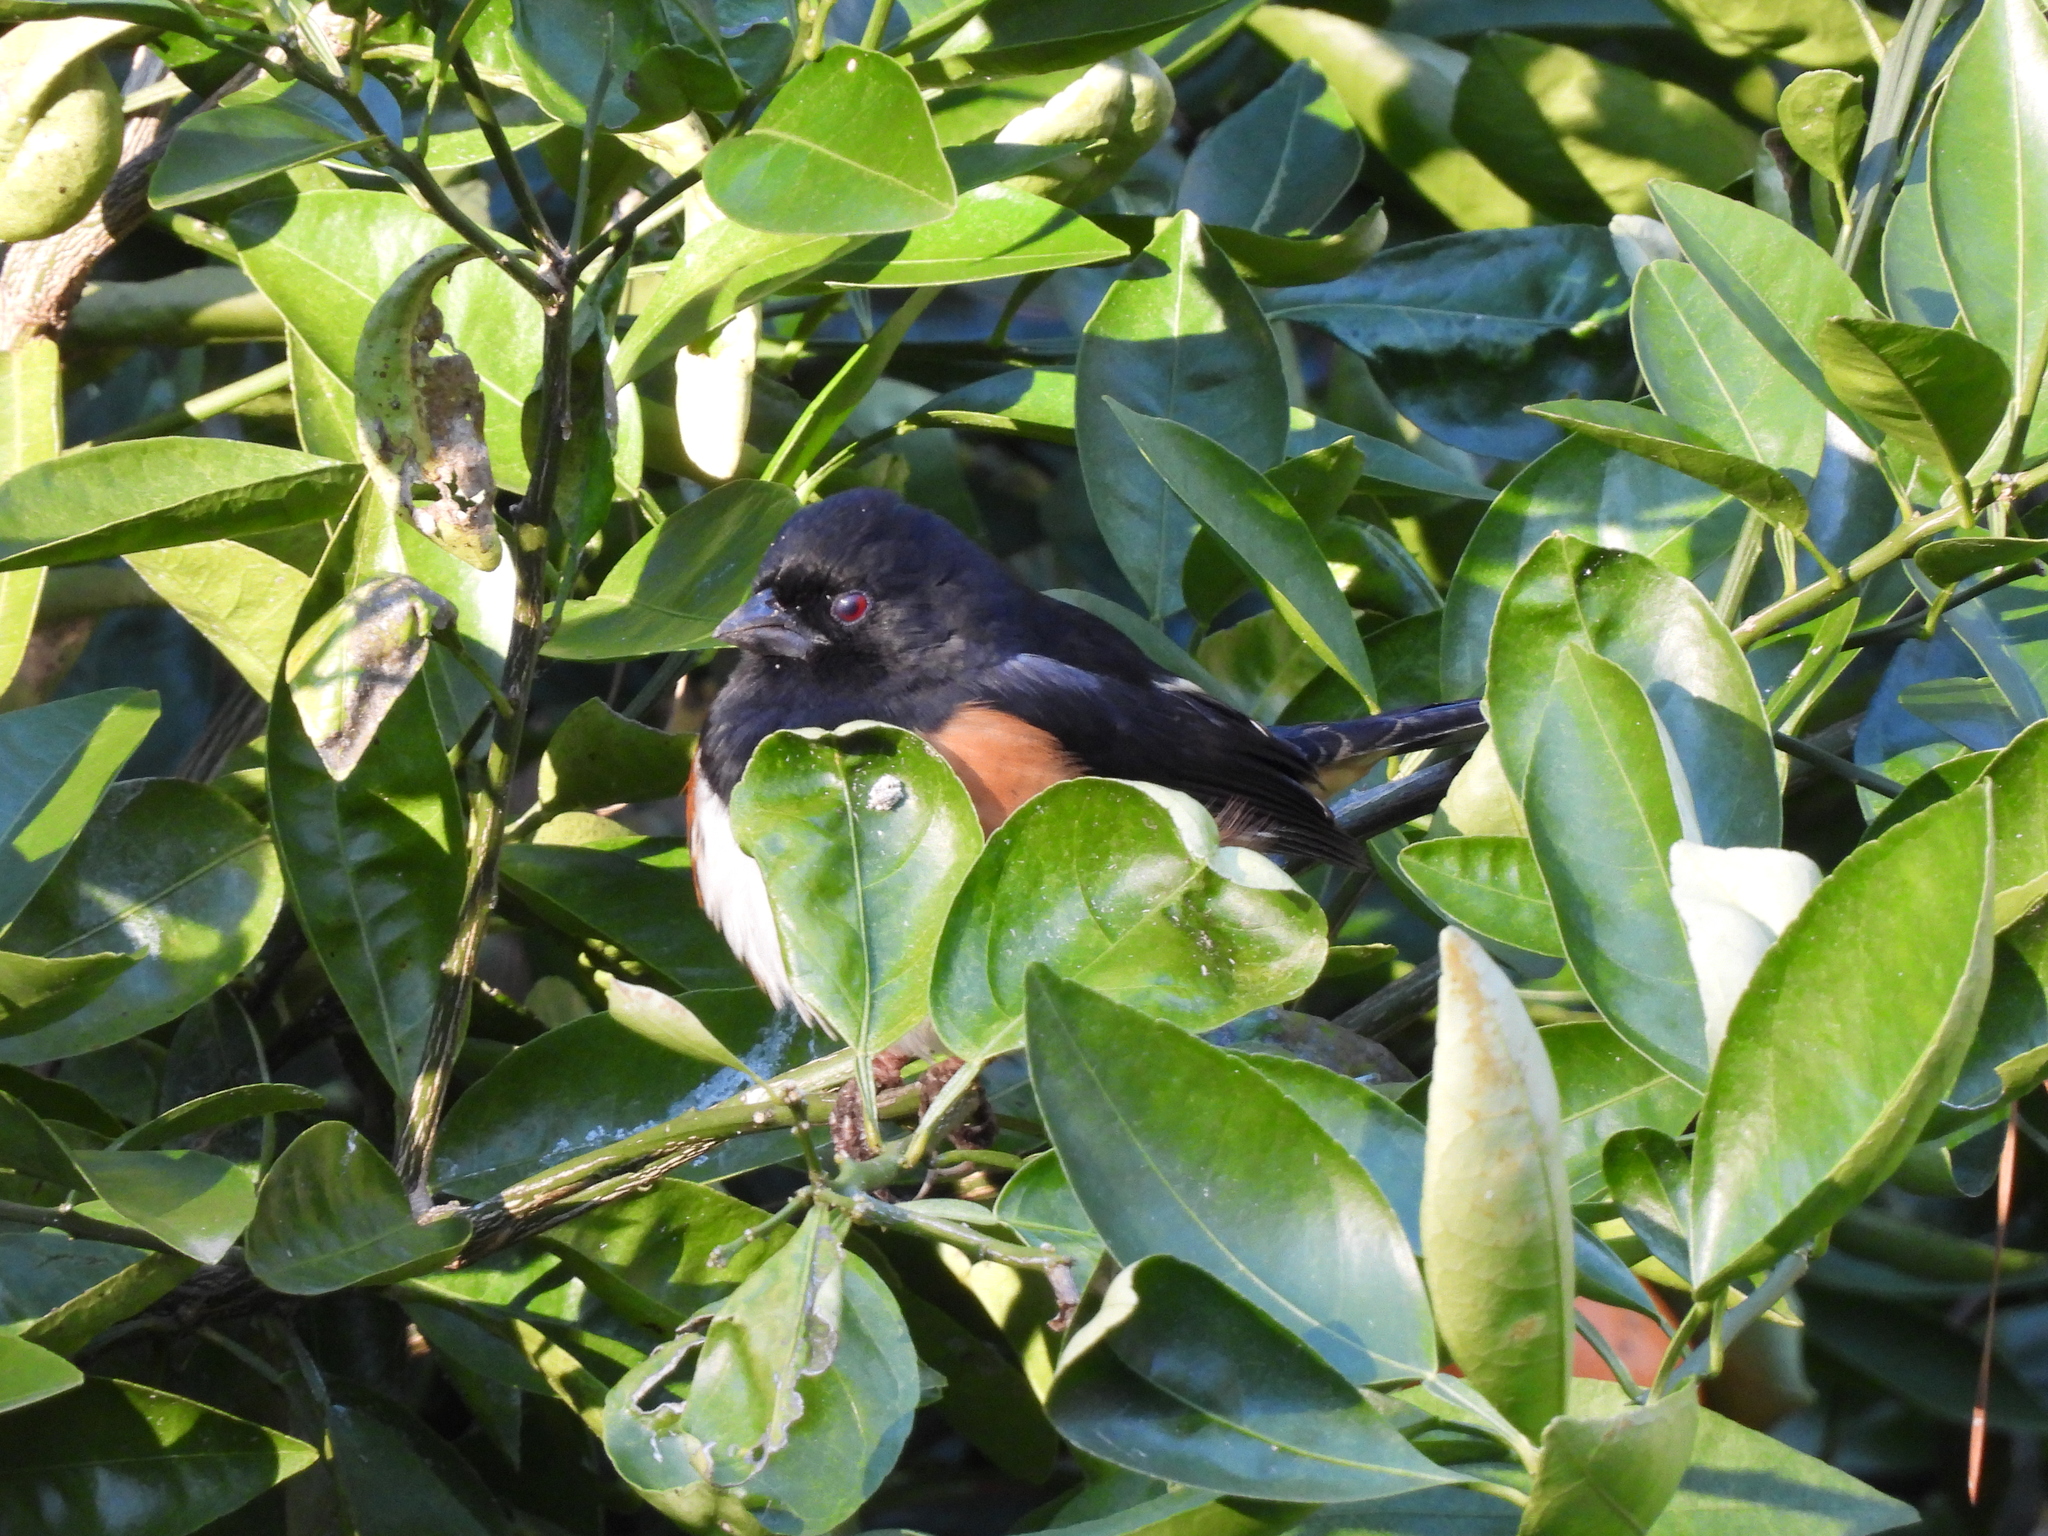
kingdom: Animalia
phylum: Chordata
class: Aves
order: Passeriformes
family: Passerellidae
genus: Pipilo
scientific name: Pipilo erythrophthalmus
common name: Eastern towhee
